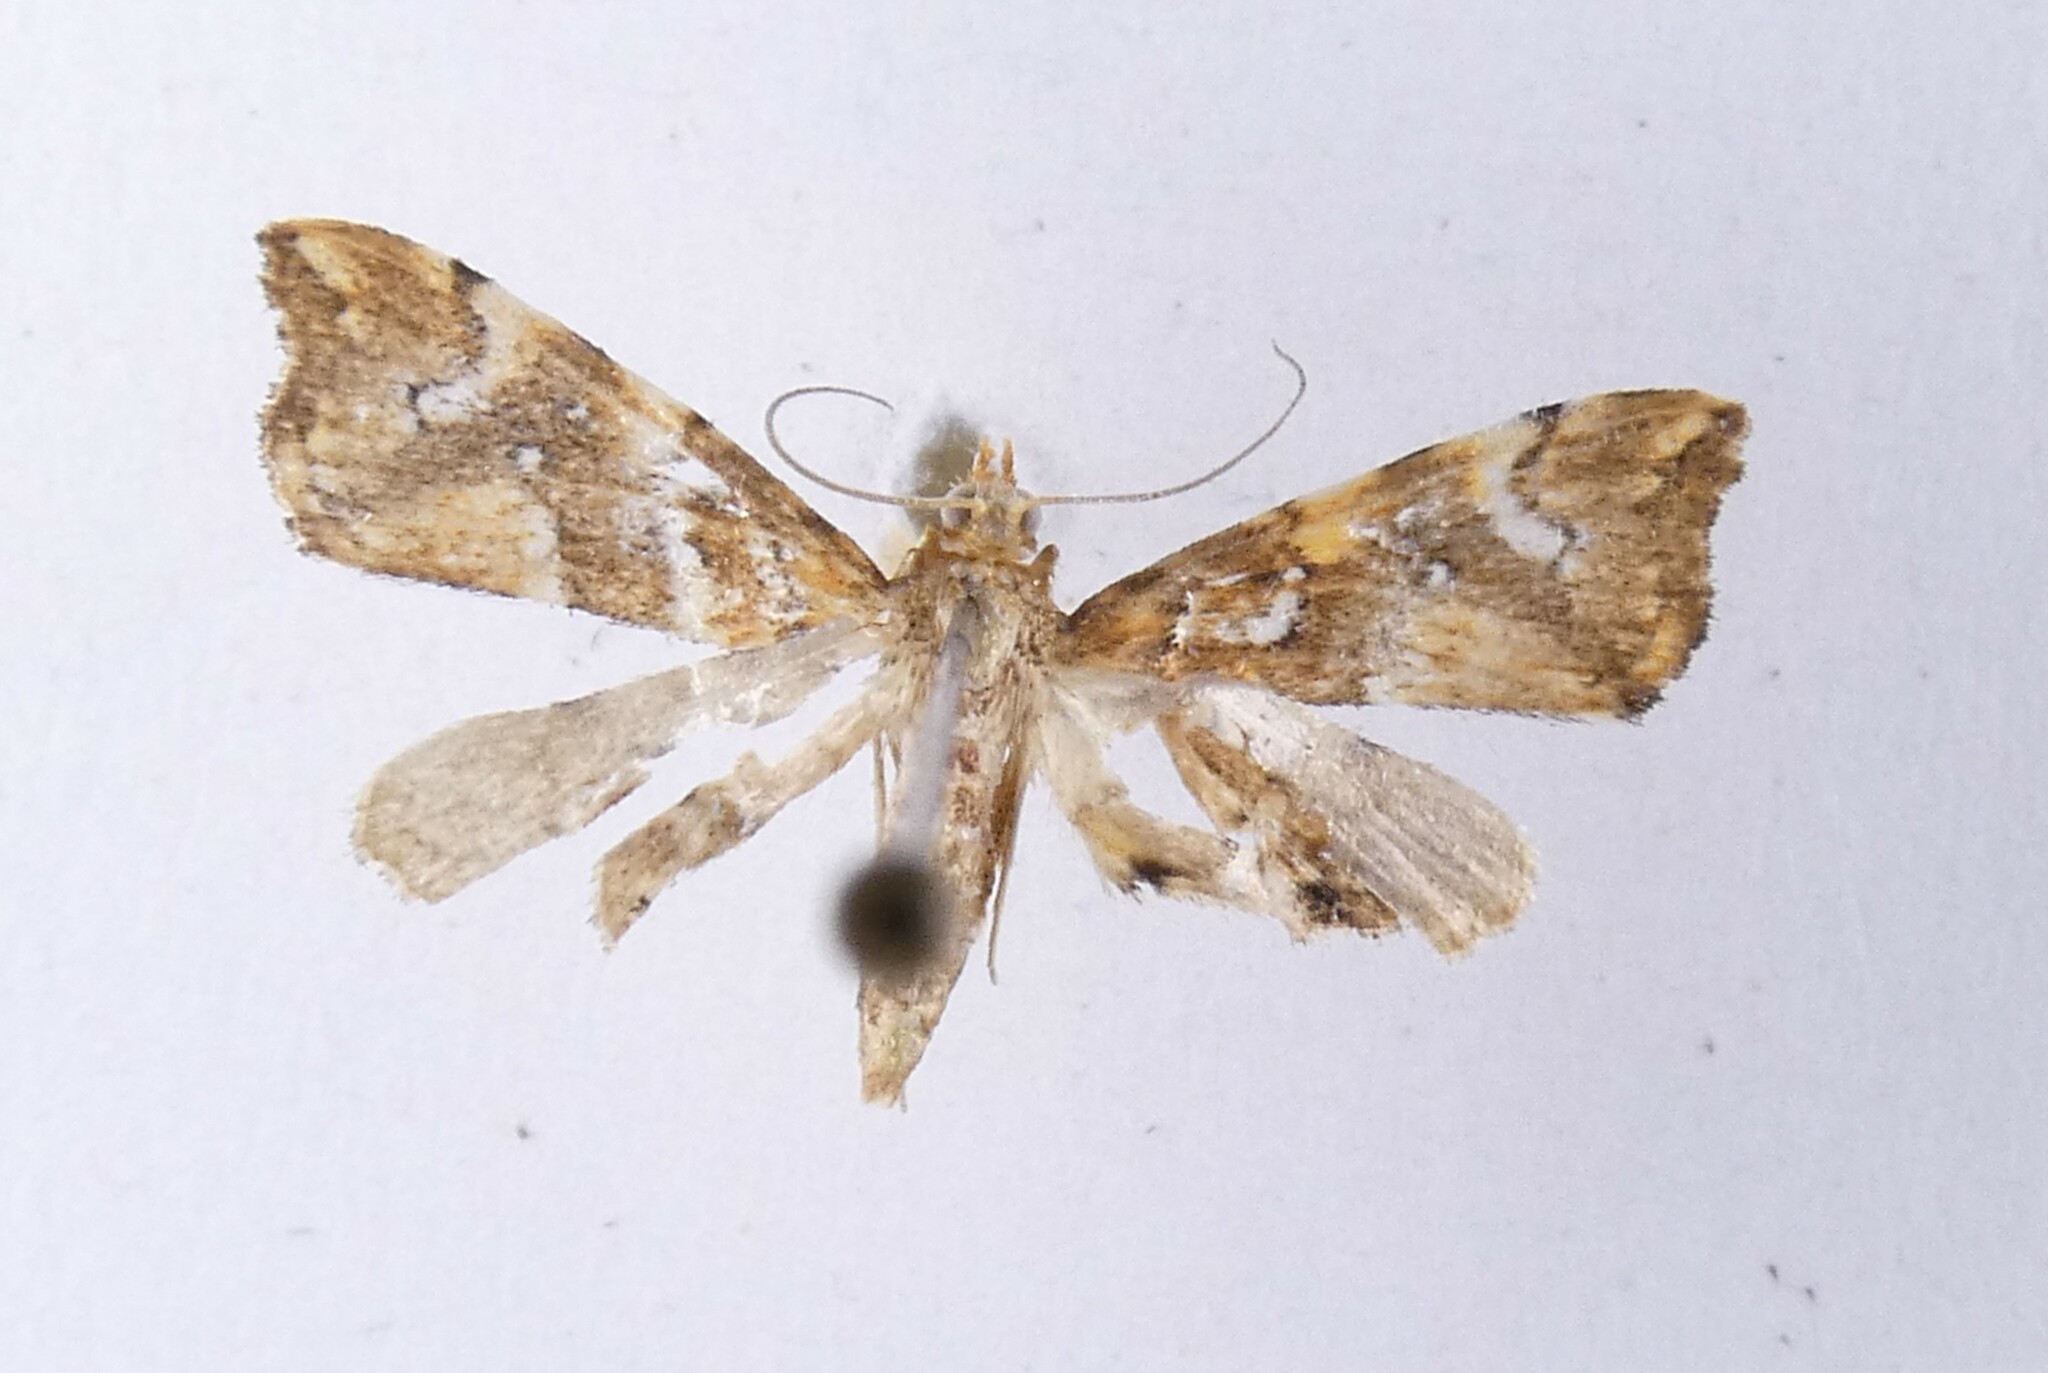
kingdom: Animalia
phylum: Arthropoda
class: Insecta
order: Lepidoptera
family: Pyralidae
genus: Musotima
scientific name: Musotima nitidalis
